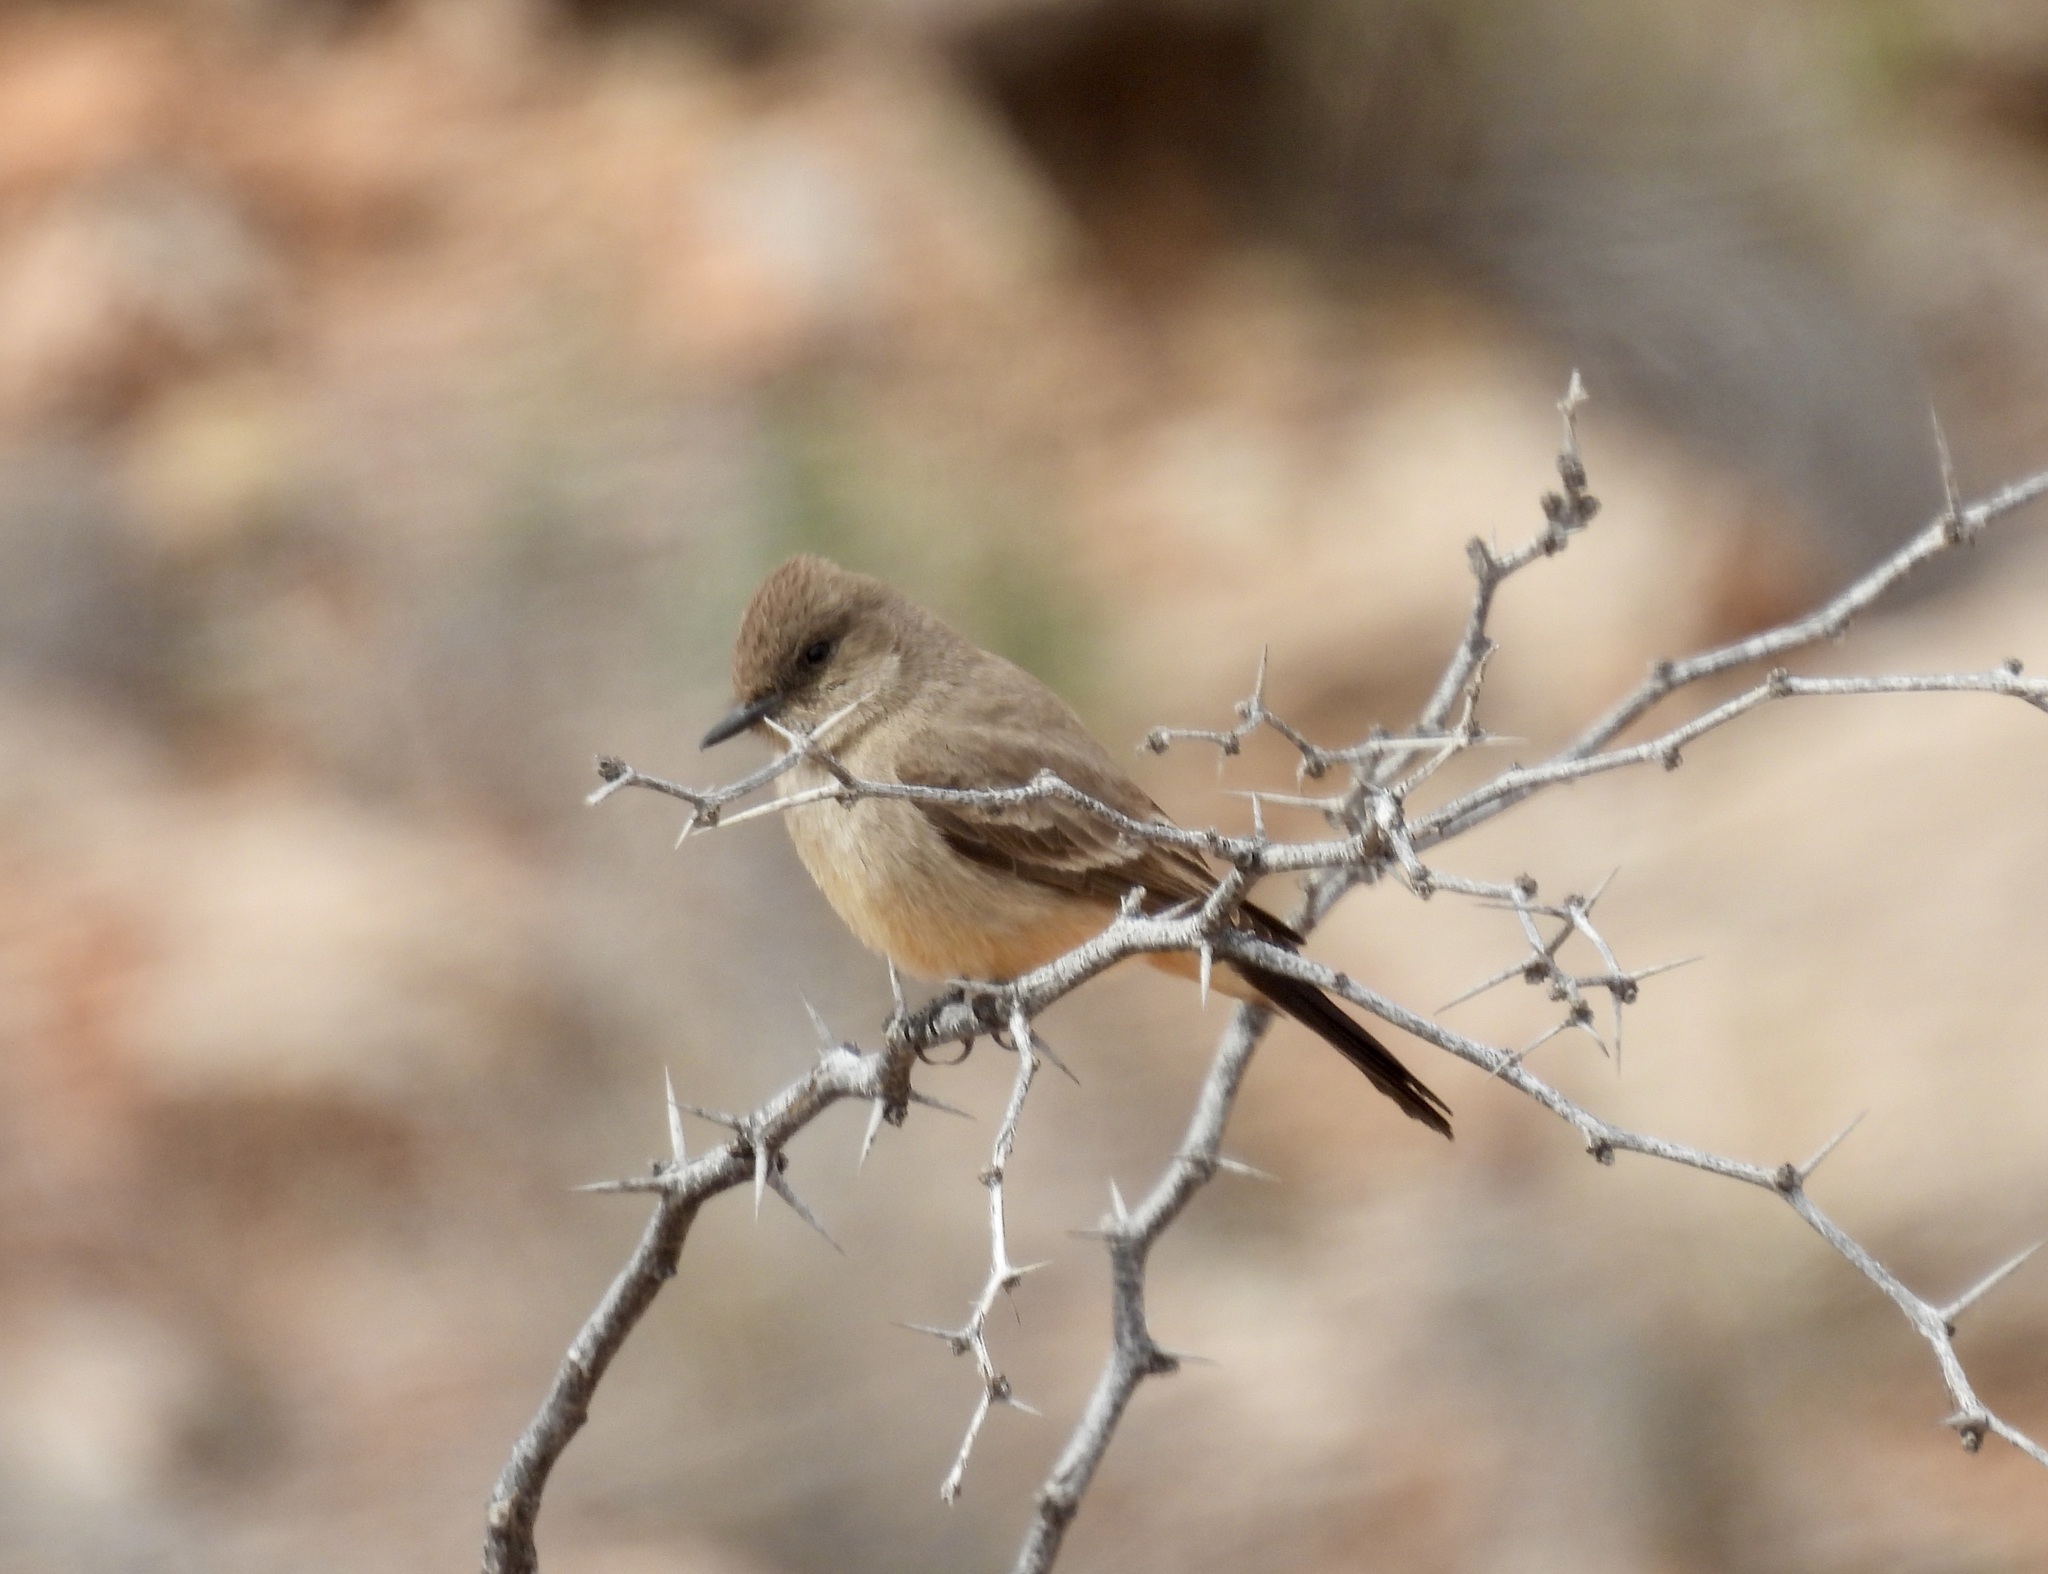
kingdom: Animalia
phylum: Chordata
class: Aves
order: Passeriformes
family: Tyrannidae
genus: Sayornis
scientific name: Sayornis saya
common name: Say's phoebe
